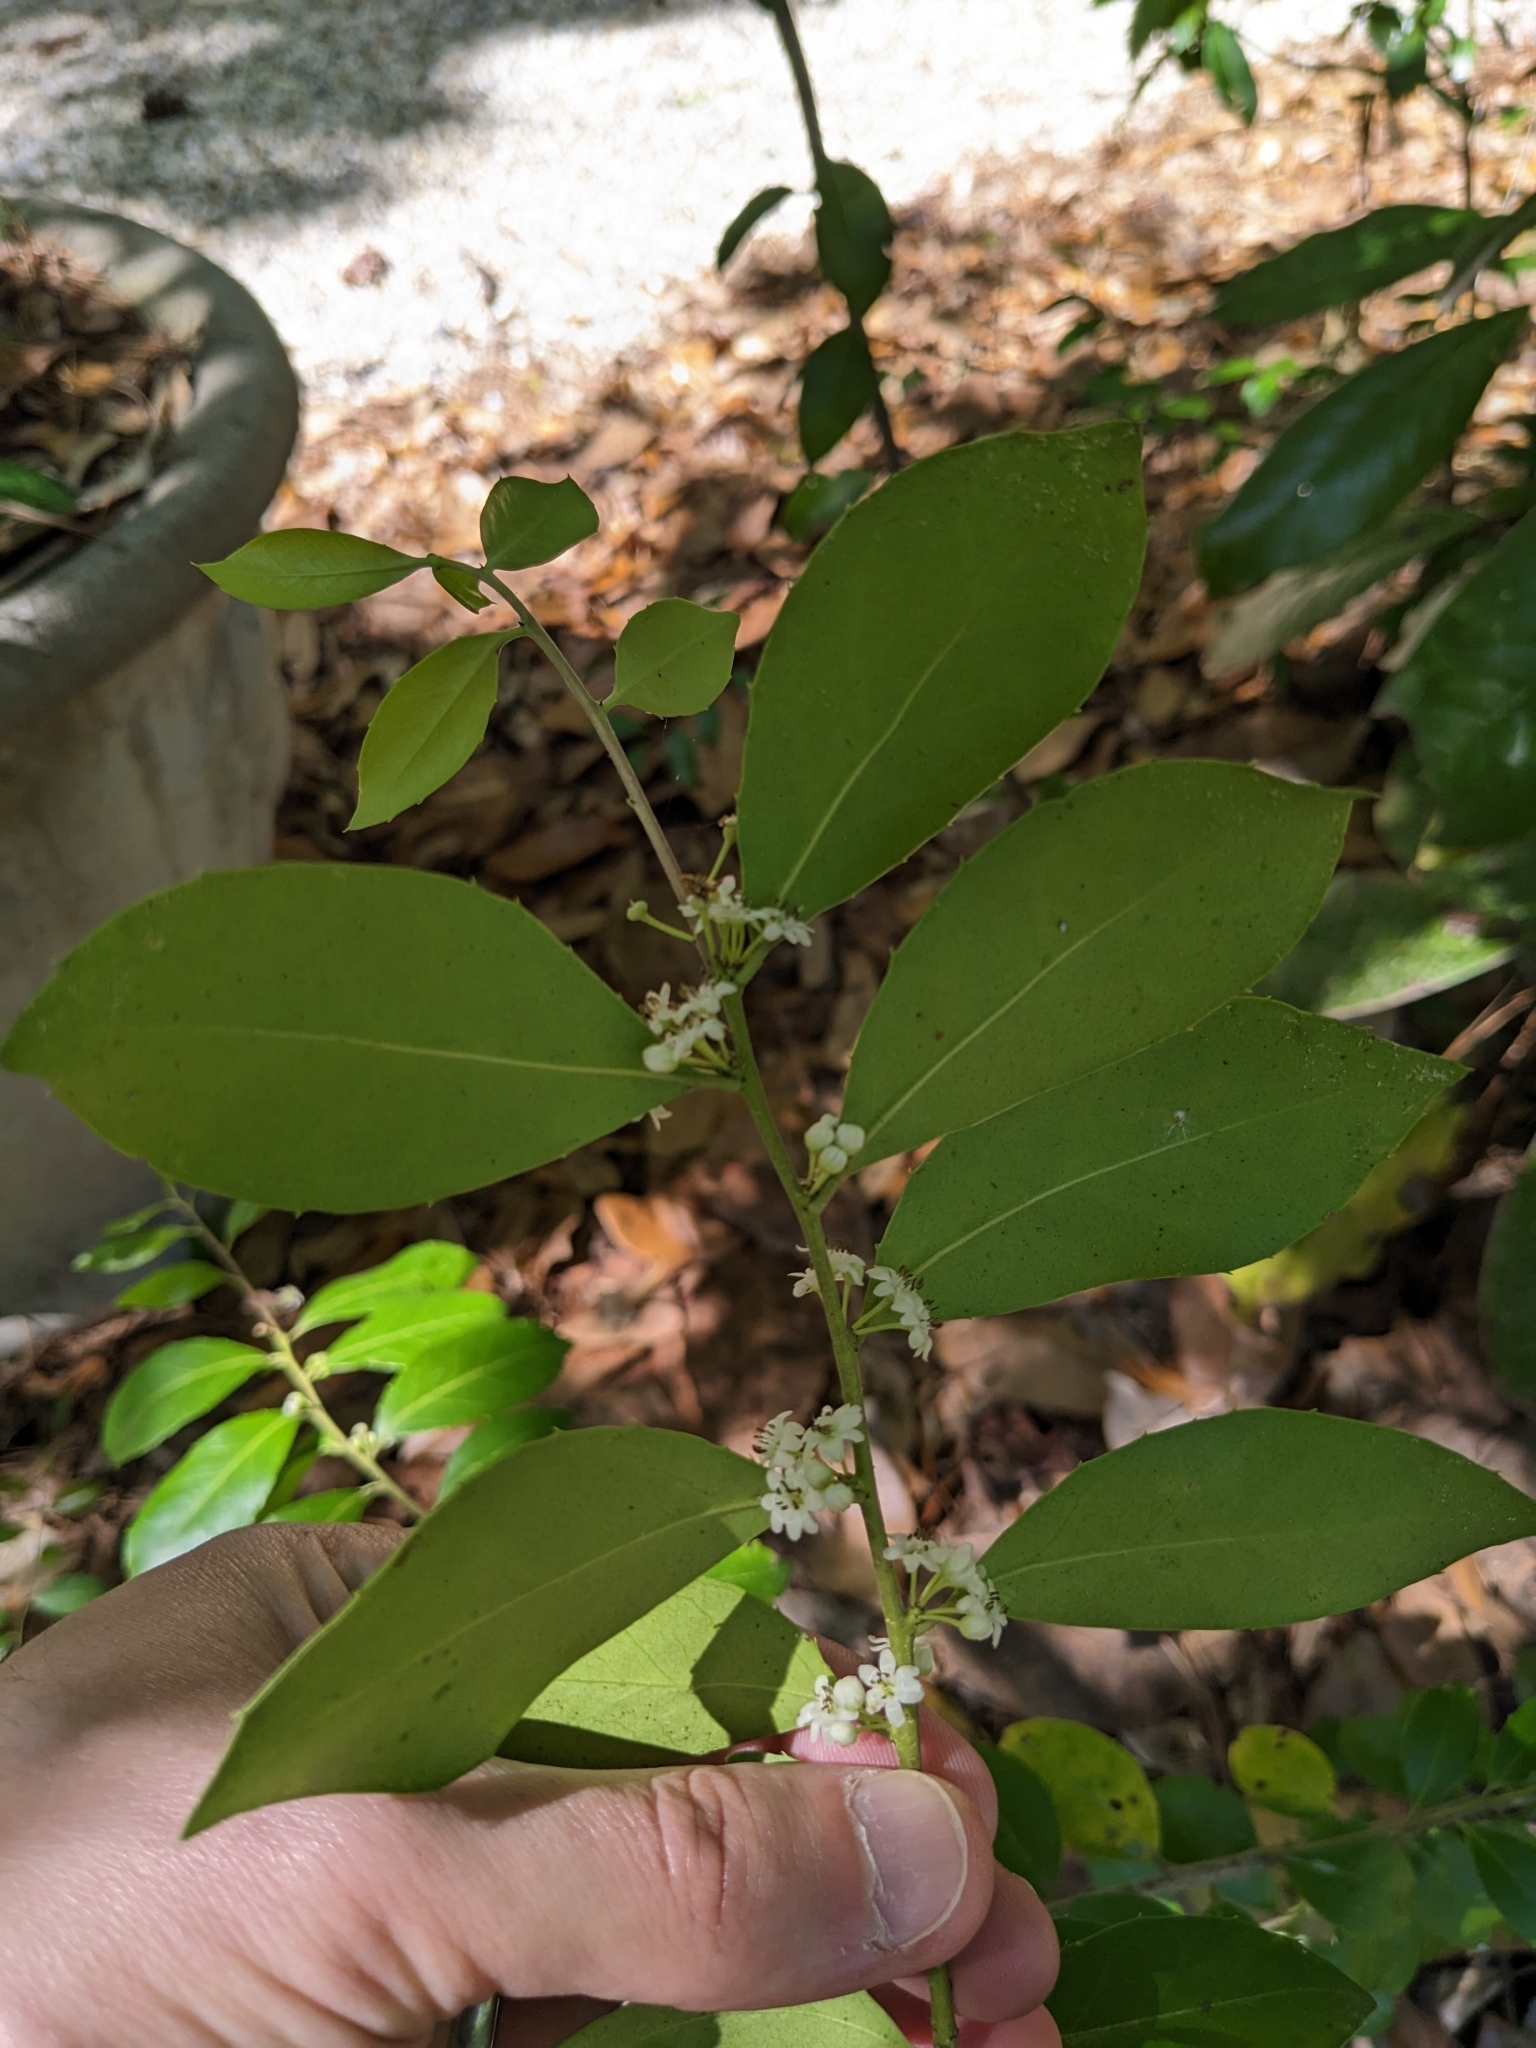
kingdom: Plantae
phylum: Tracheophyta
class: Magnoliopsida
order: Aquifoliales
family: Aquifoliaceae
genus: Ilex
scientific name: Ilex coriacea
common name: Sweet gallberry
